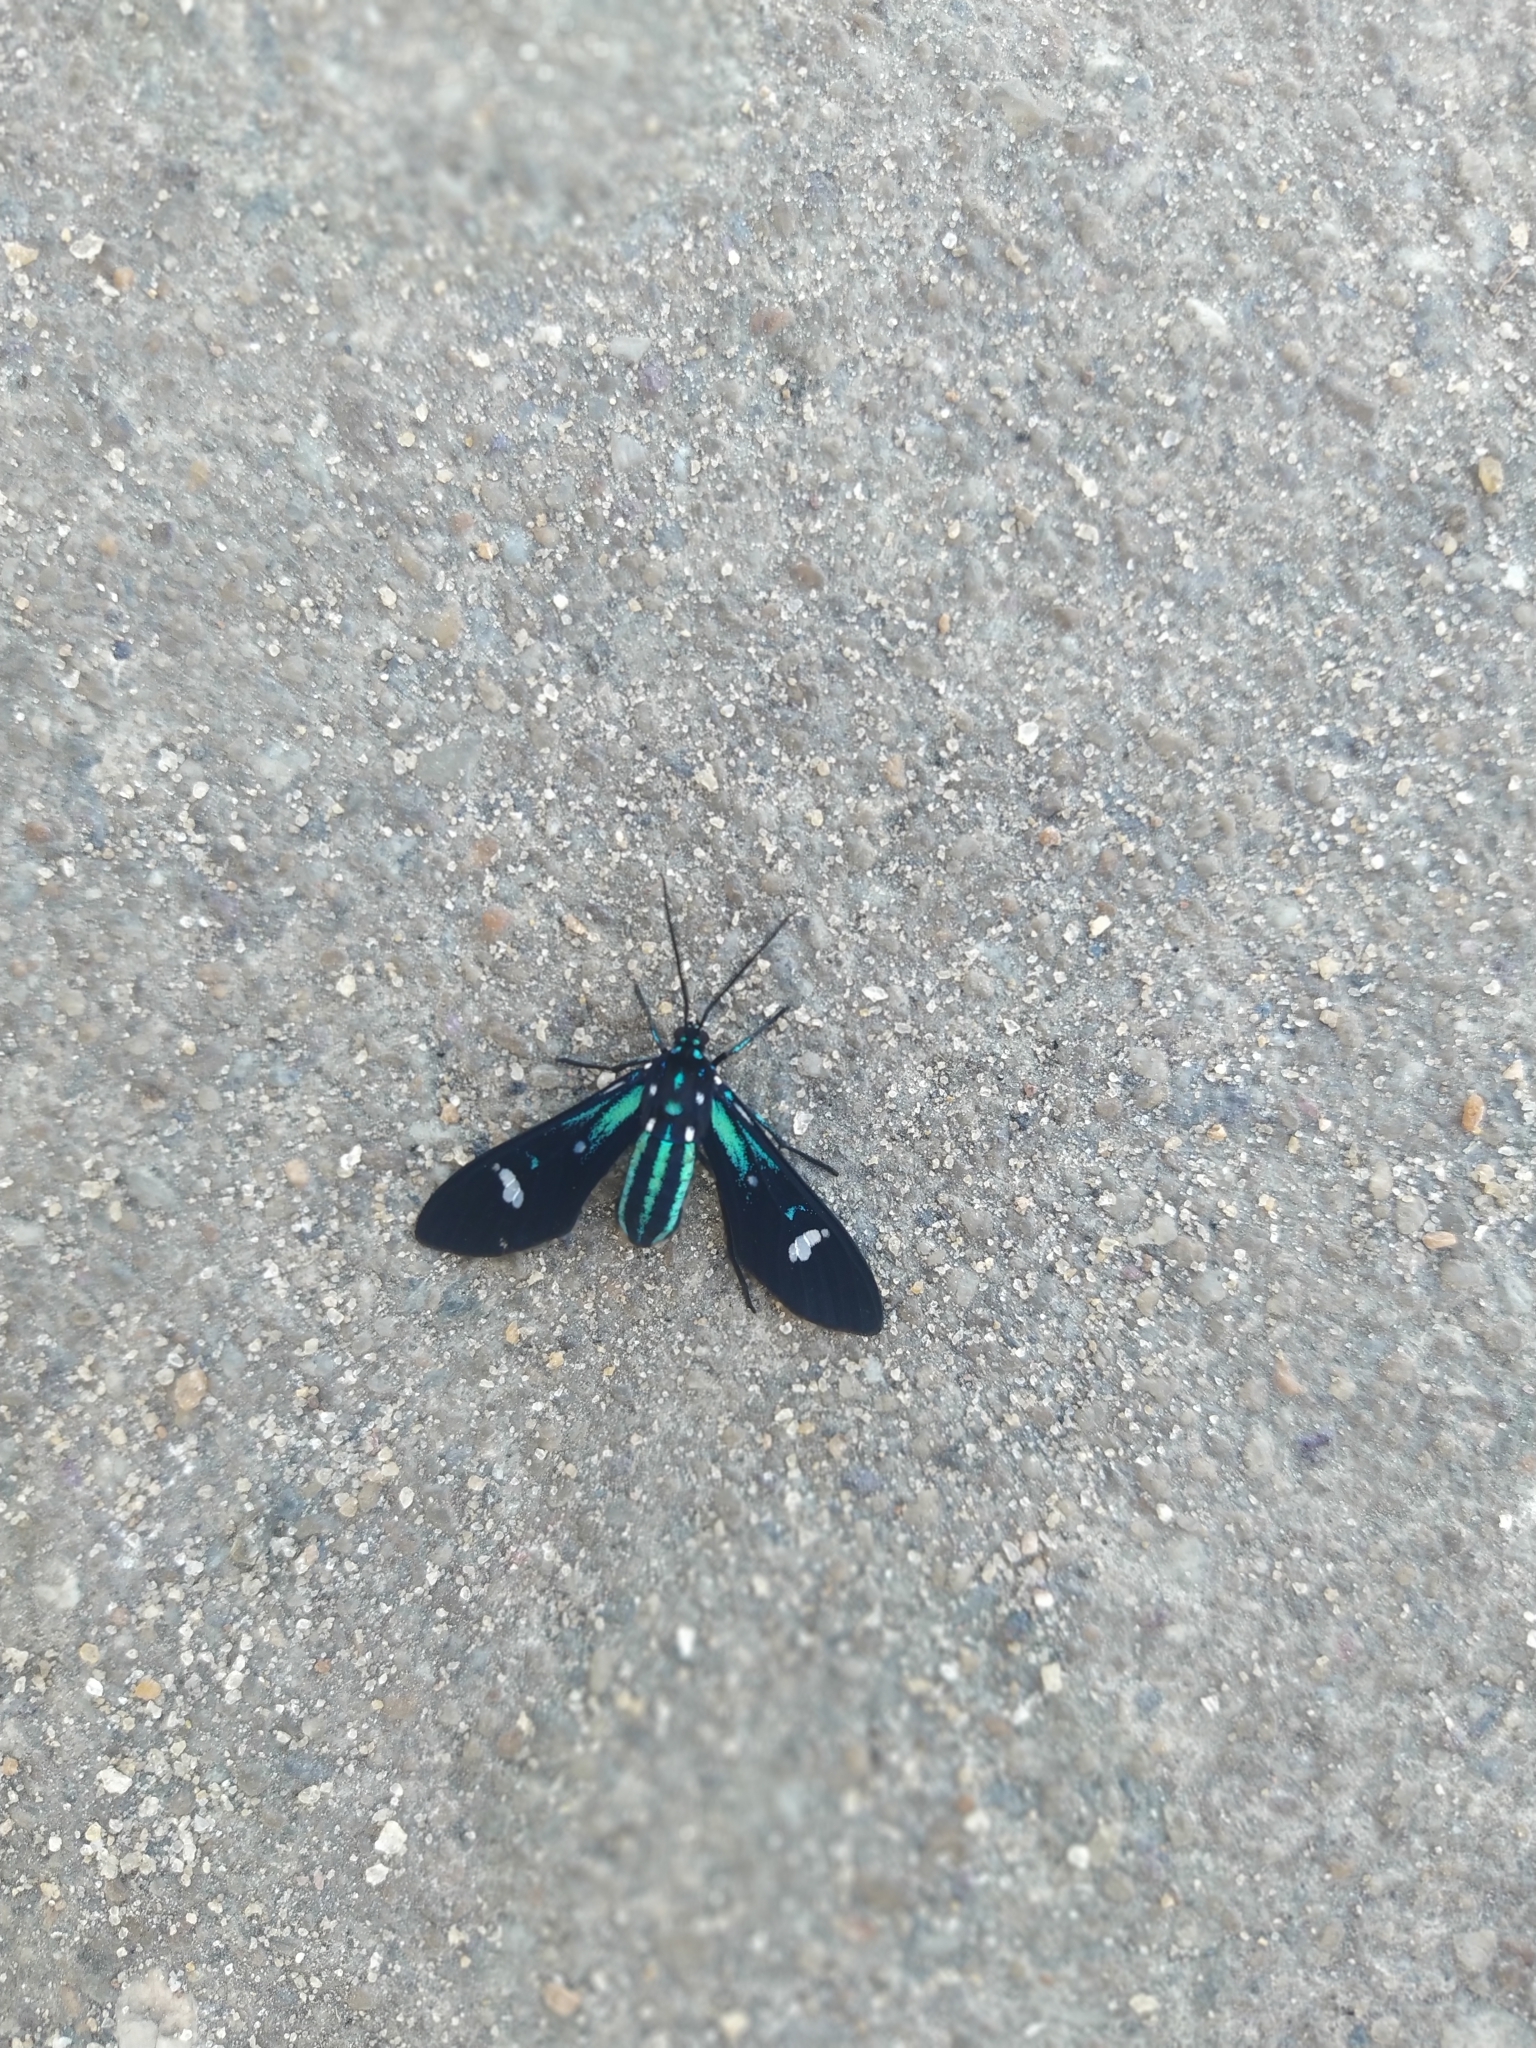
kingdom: Animalia
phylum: Arthropoda
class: Insecta
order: Lepidoptera
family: Erebidae
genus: Leucotmemis
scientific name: Leucotmemis nexa
